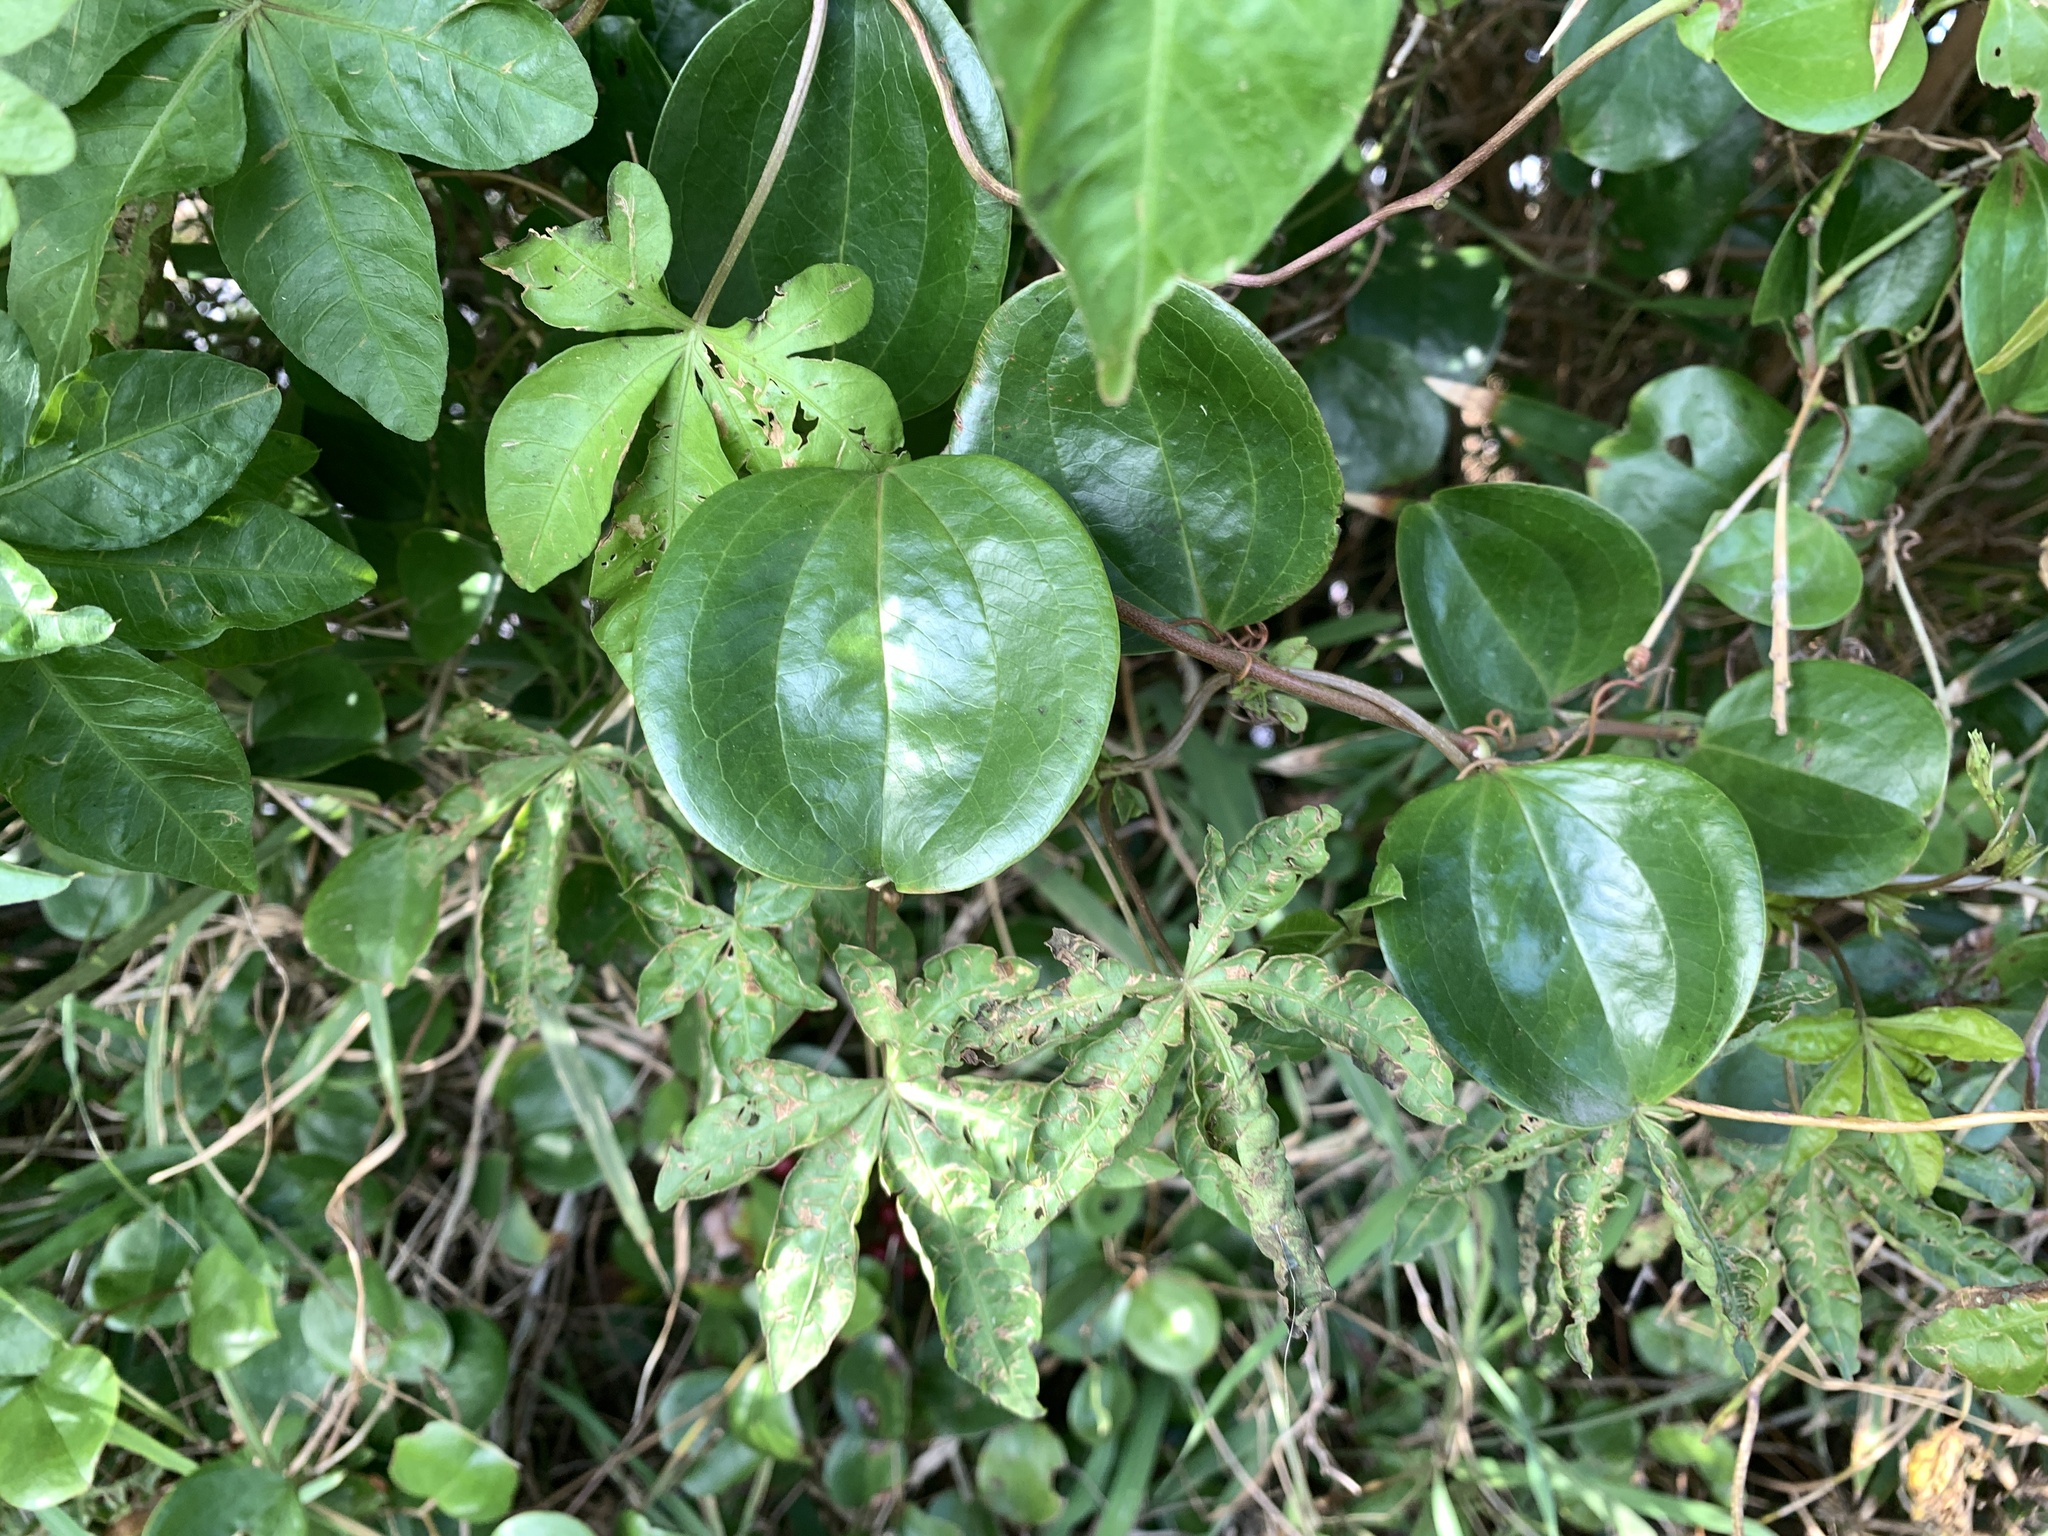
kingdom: Plantae
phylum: Tracheophyta
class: Liliopsida
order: Liliales
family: Smilacaceae
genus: Smilax
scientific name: Smilax china
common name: Chinaroot
